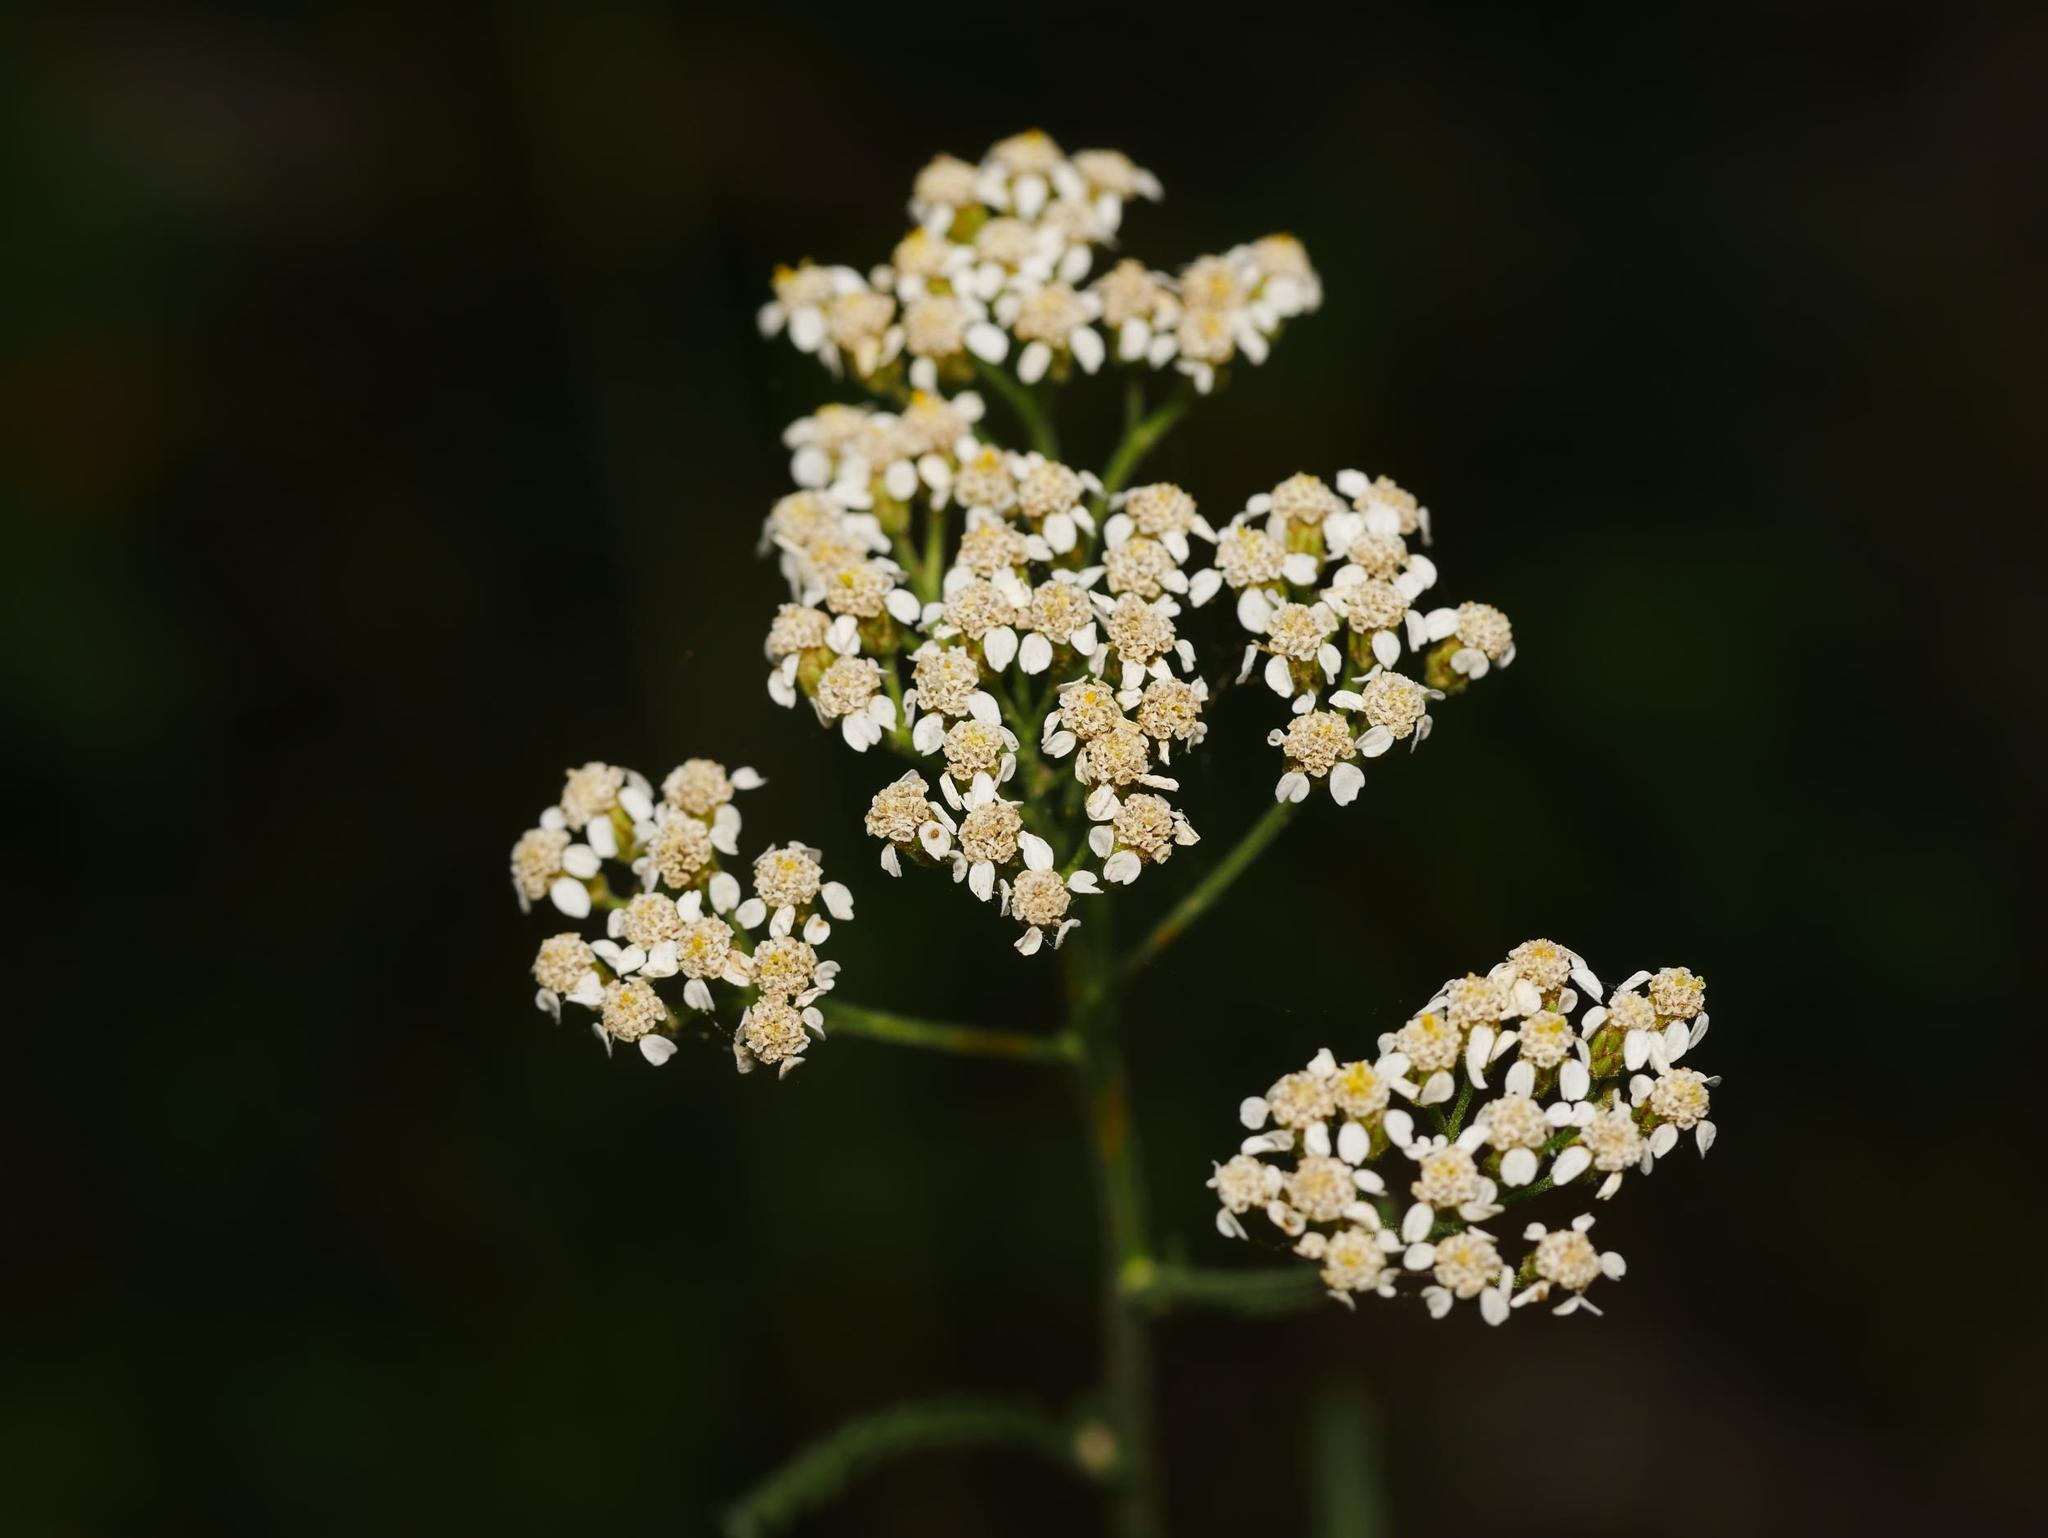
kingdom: Plantae
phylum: Tracheophyta
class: Magnoliopsida
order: Asterales
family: Asteraceae
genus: Achillea
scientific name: Achillea millefolium
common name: Yarrow
